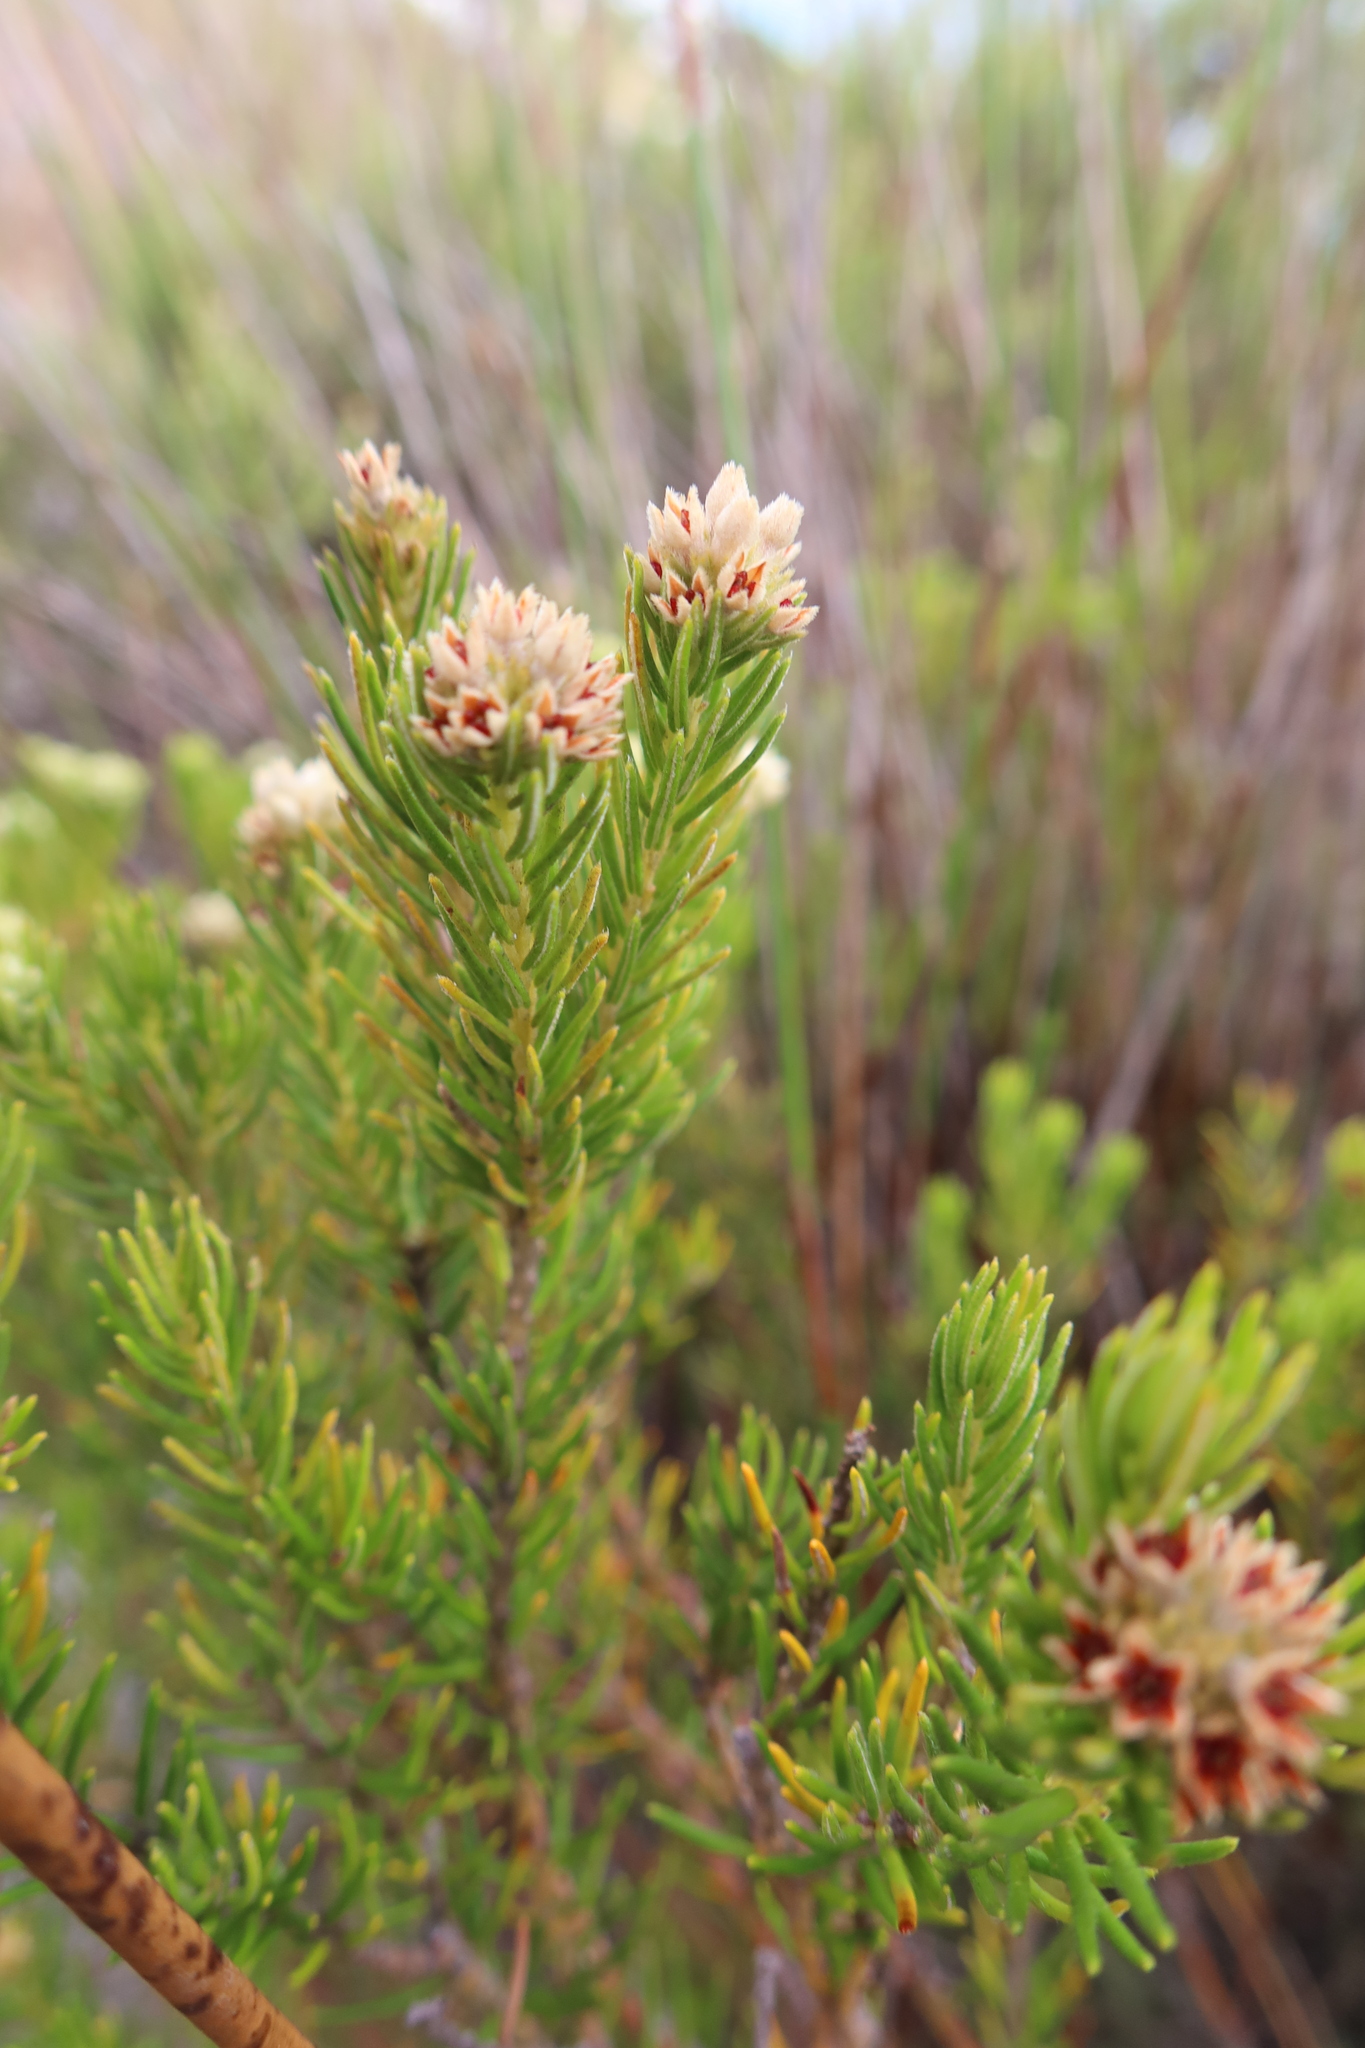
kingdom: Plantae
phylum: Tracheophyta
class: Magnoliopsida
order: Rosales
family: Rhamnaceae
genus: Phylica
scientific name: Phylica imberbis
